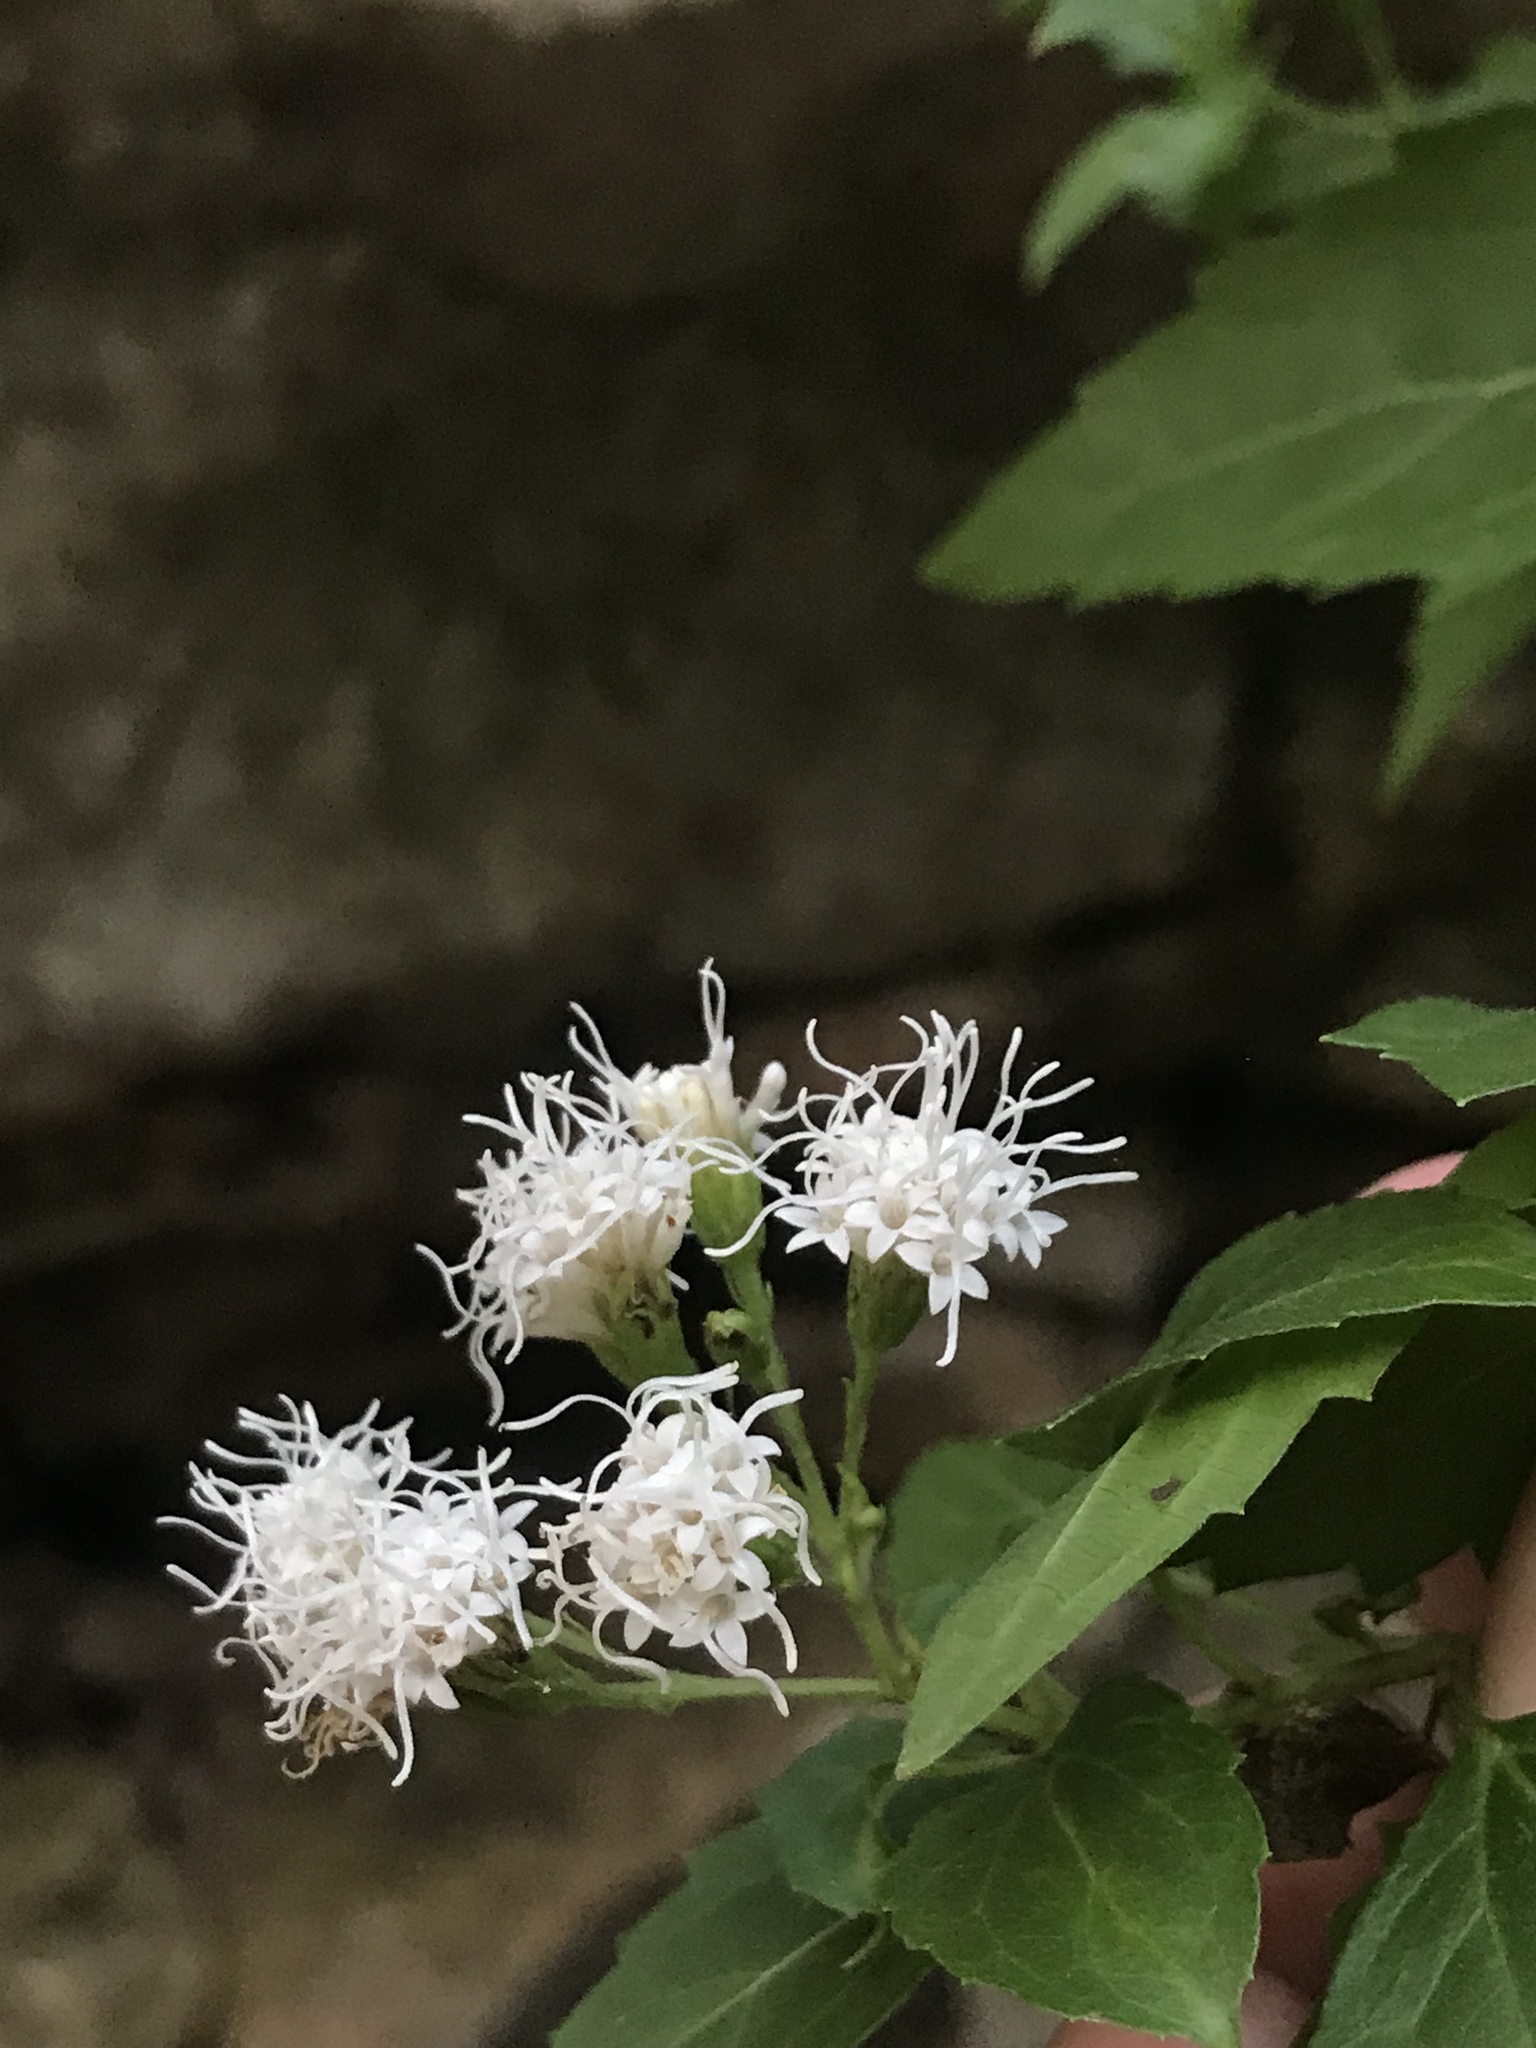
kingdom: Plantae
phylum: Tracheophyta
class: Magnoliopsida
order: Asterales
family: Asteraceae
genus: Ageratina
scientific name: Ageratina havanensis
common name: Havana snakeroot
